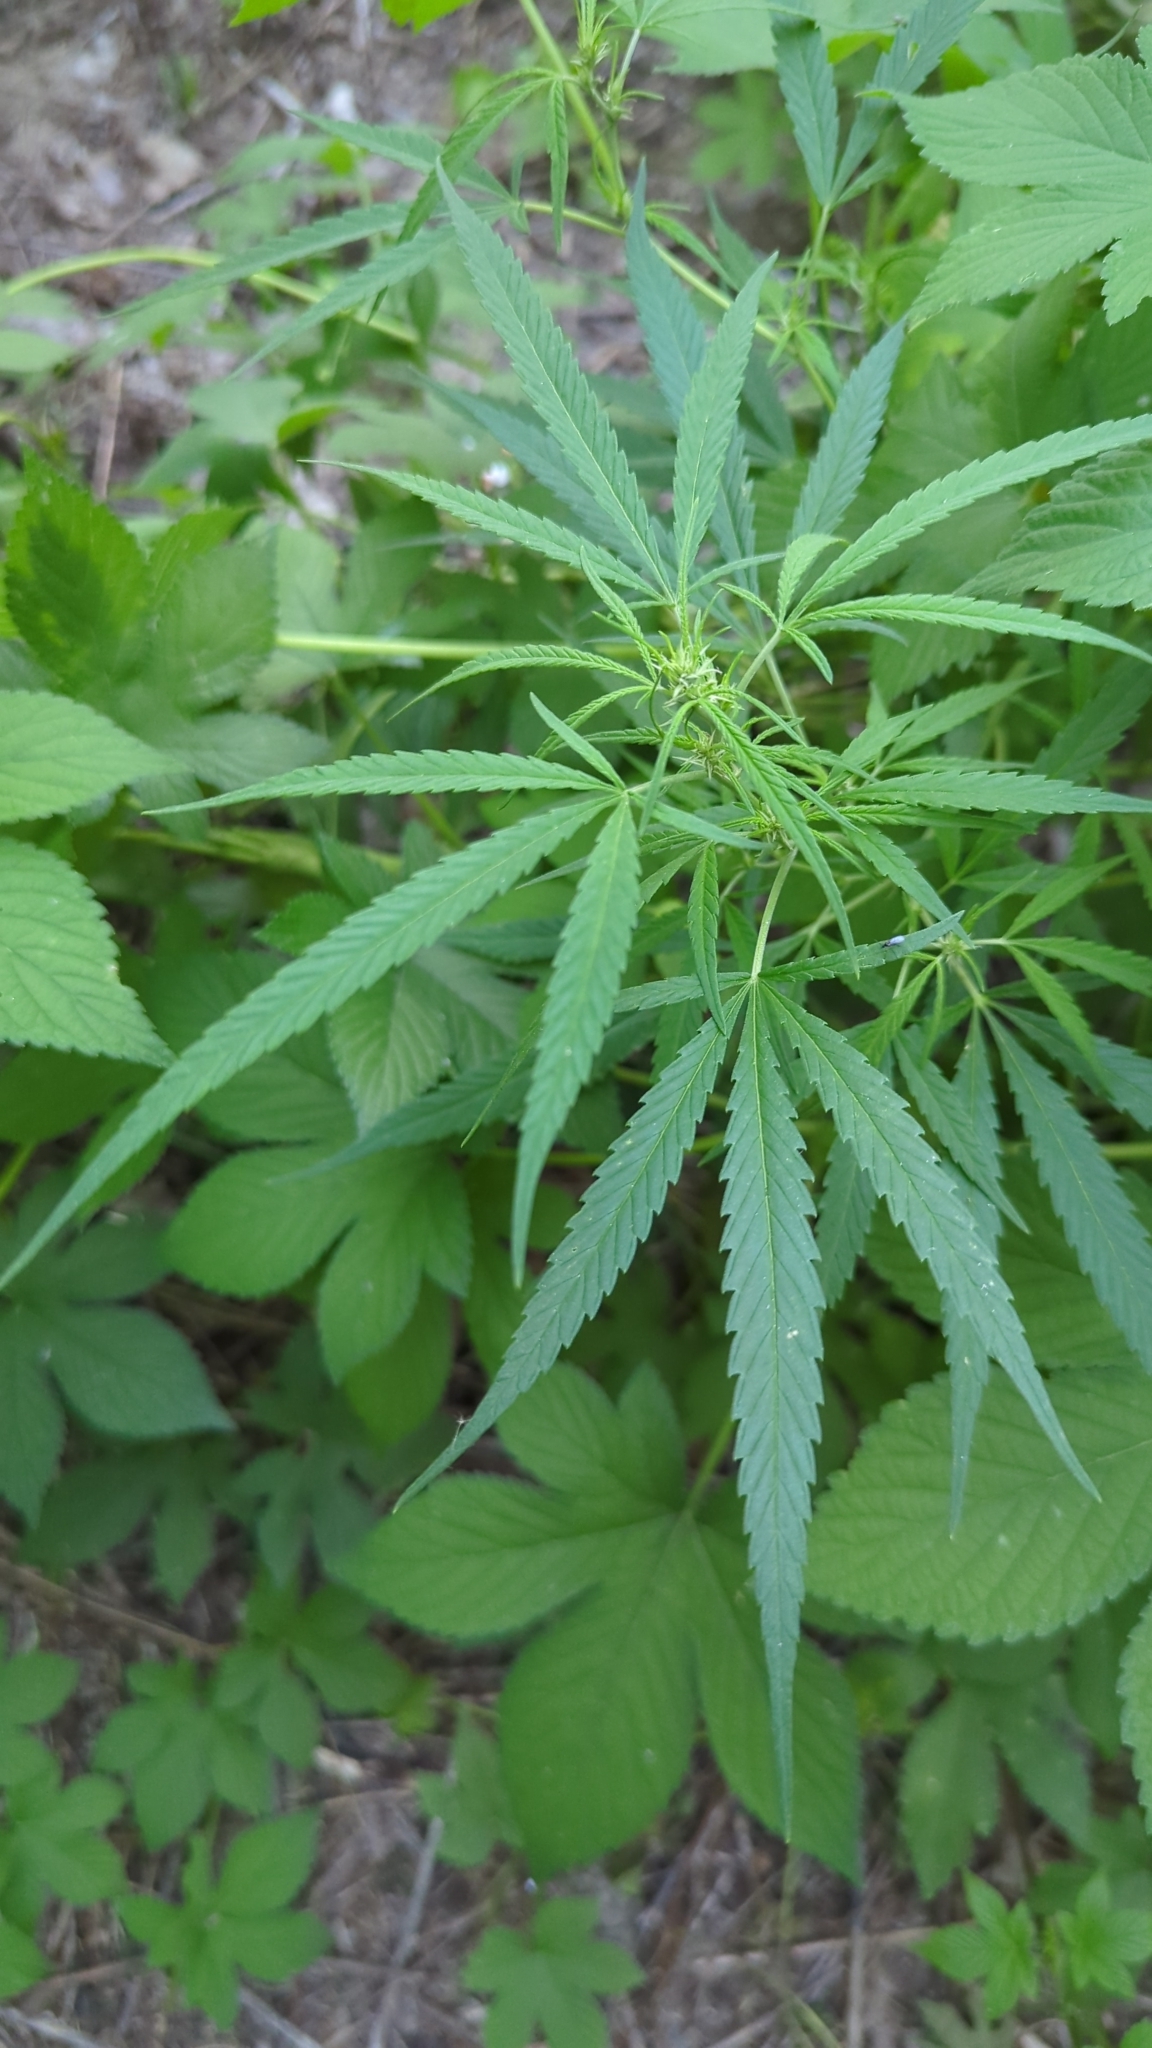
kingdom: Plantae
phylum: Tracheophyta
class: Magnoliopsida
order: Rosales
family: Cannabaceae
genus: Cannabis
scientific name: Cannabis sativa
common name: Hemp
